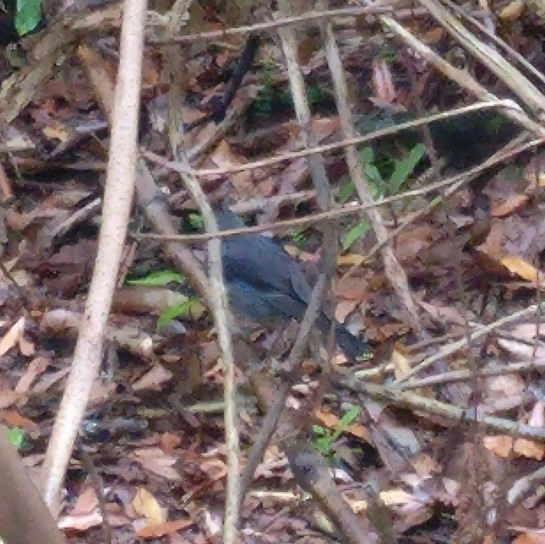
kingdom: Animalia
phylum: Chordata
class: Aves
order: Passeriformes
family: Petroicidae
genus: Petroica
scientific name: Petroica australis
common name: New zealand robin
